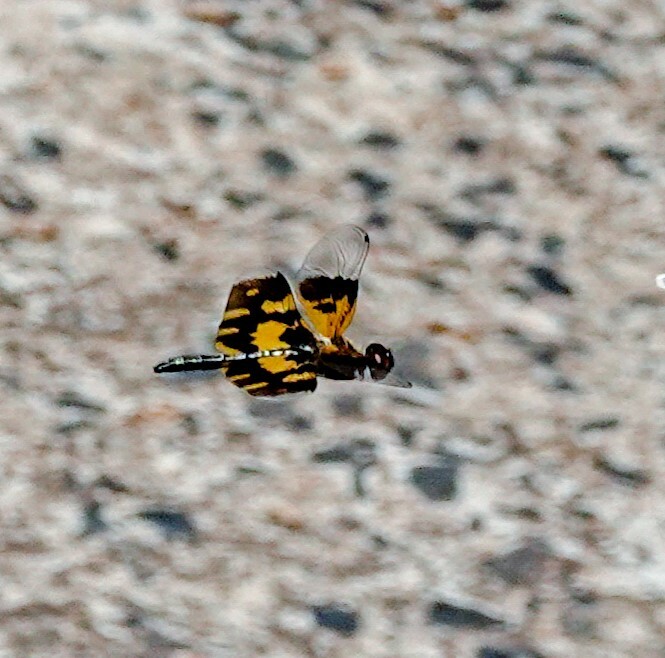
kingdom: Animalia
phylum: Arthropoda
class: Insecta
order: Odonata
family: Libellulidae
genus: Rhyothemis
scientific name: Rhyothemis variegata
